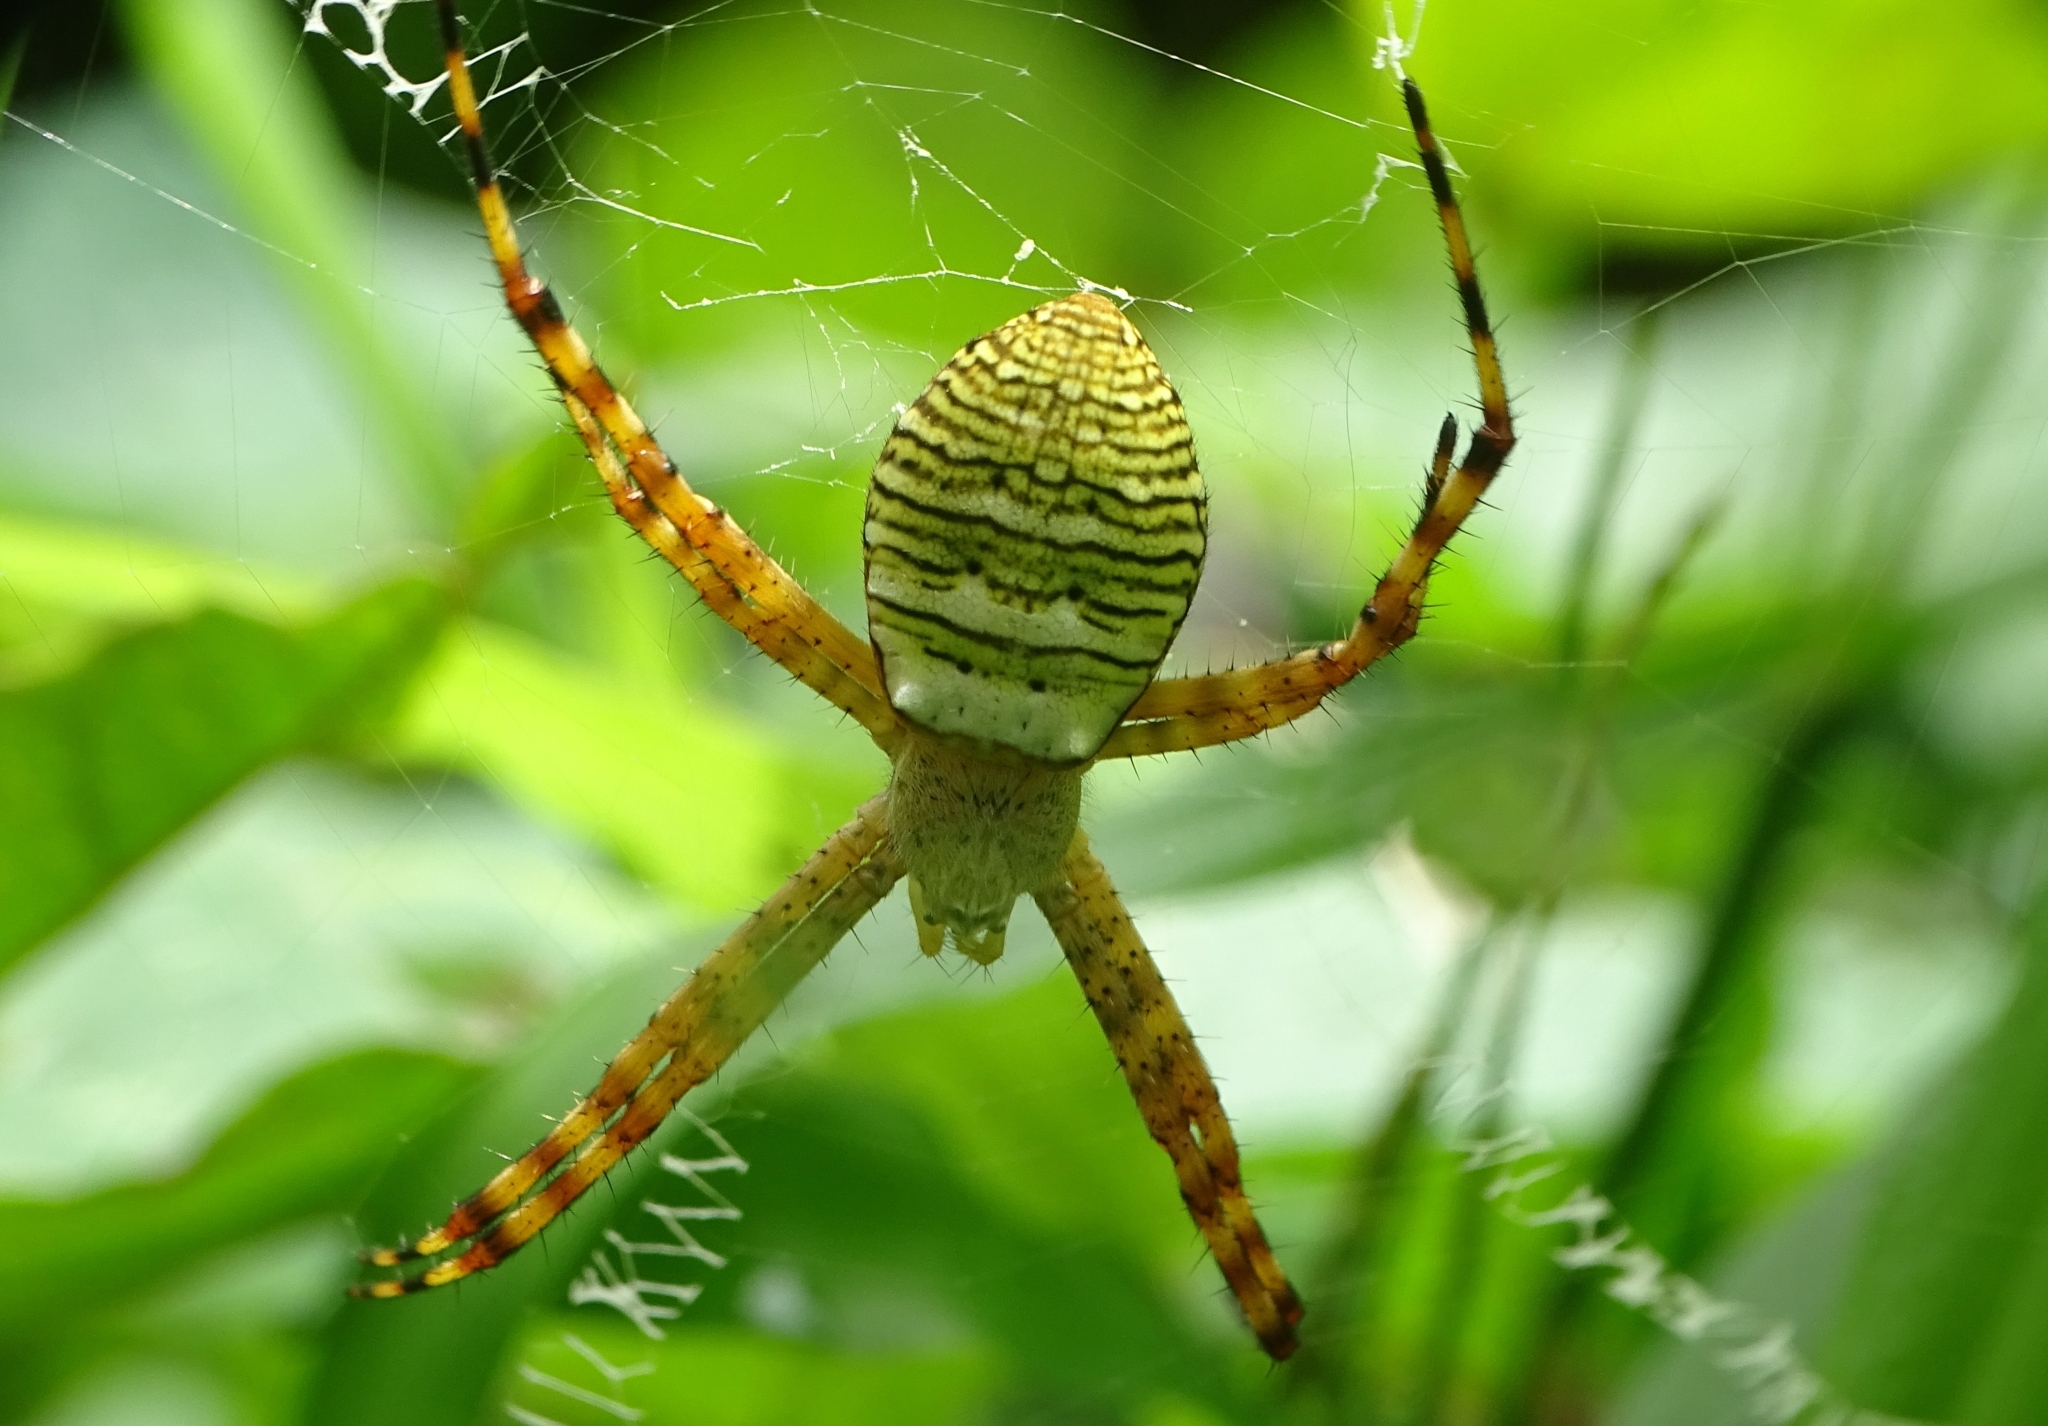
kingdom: Animalia
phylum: Arthropoda
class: Arachnida
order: Araneae
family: Araneidae
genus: Argiope
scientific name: Argiope aemula
